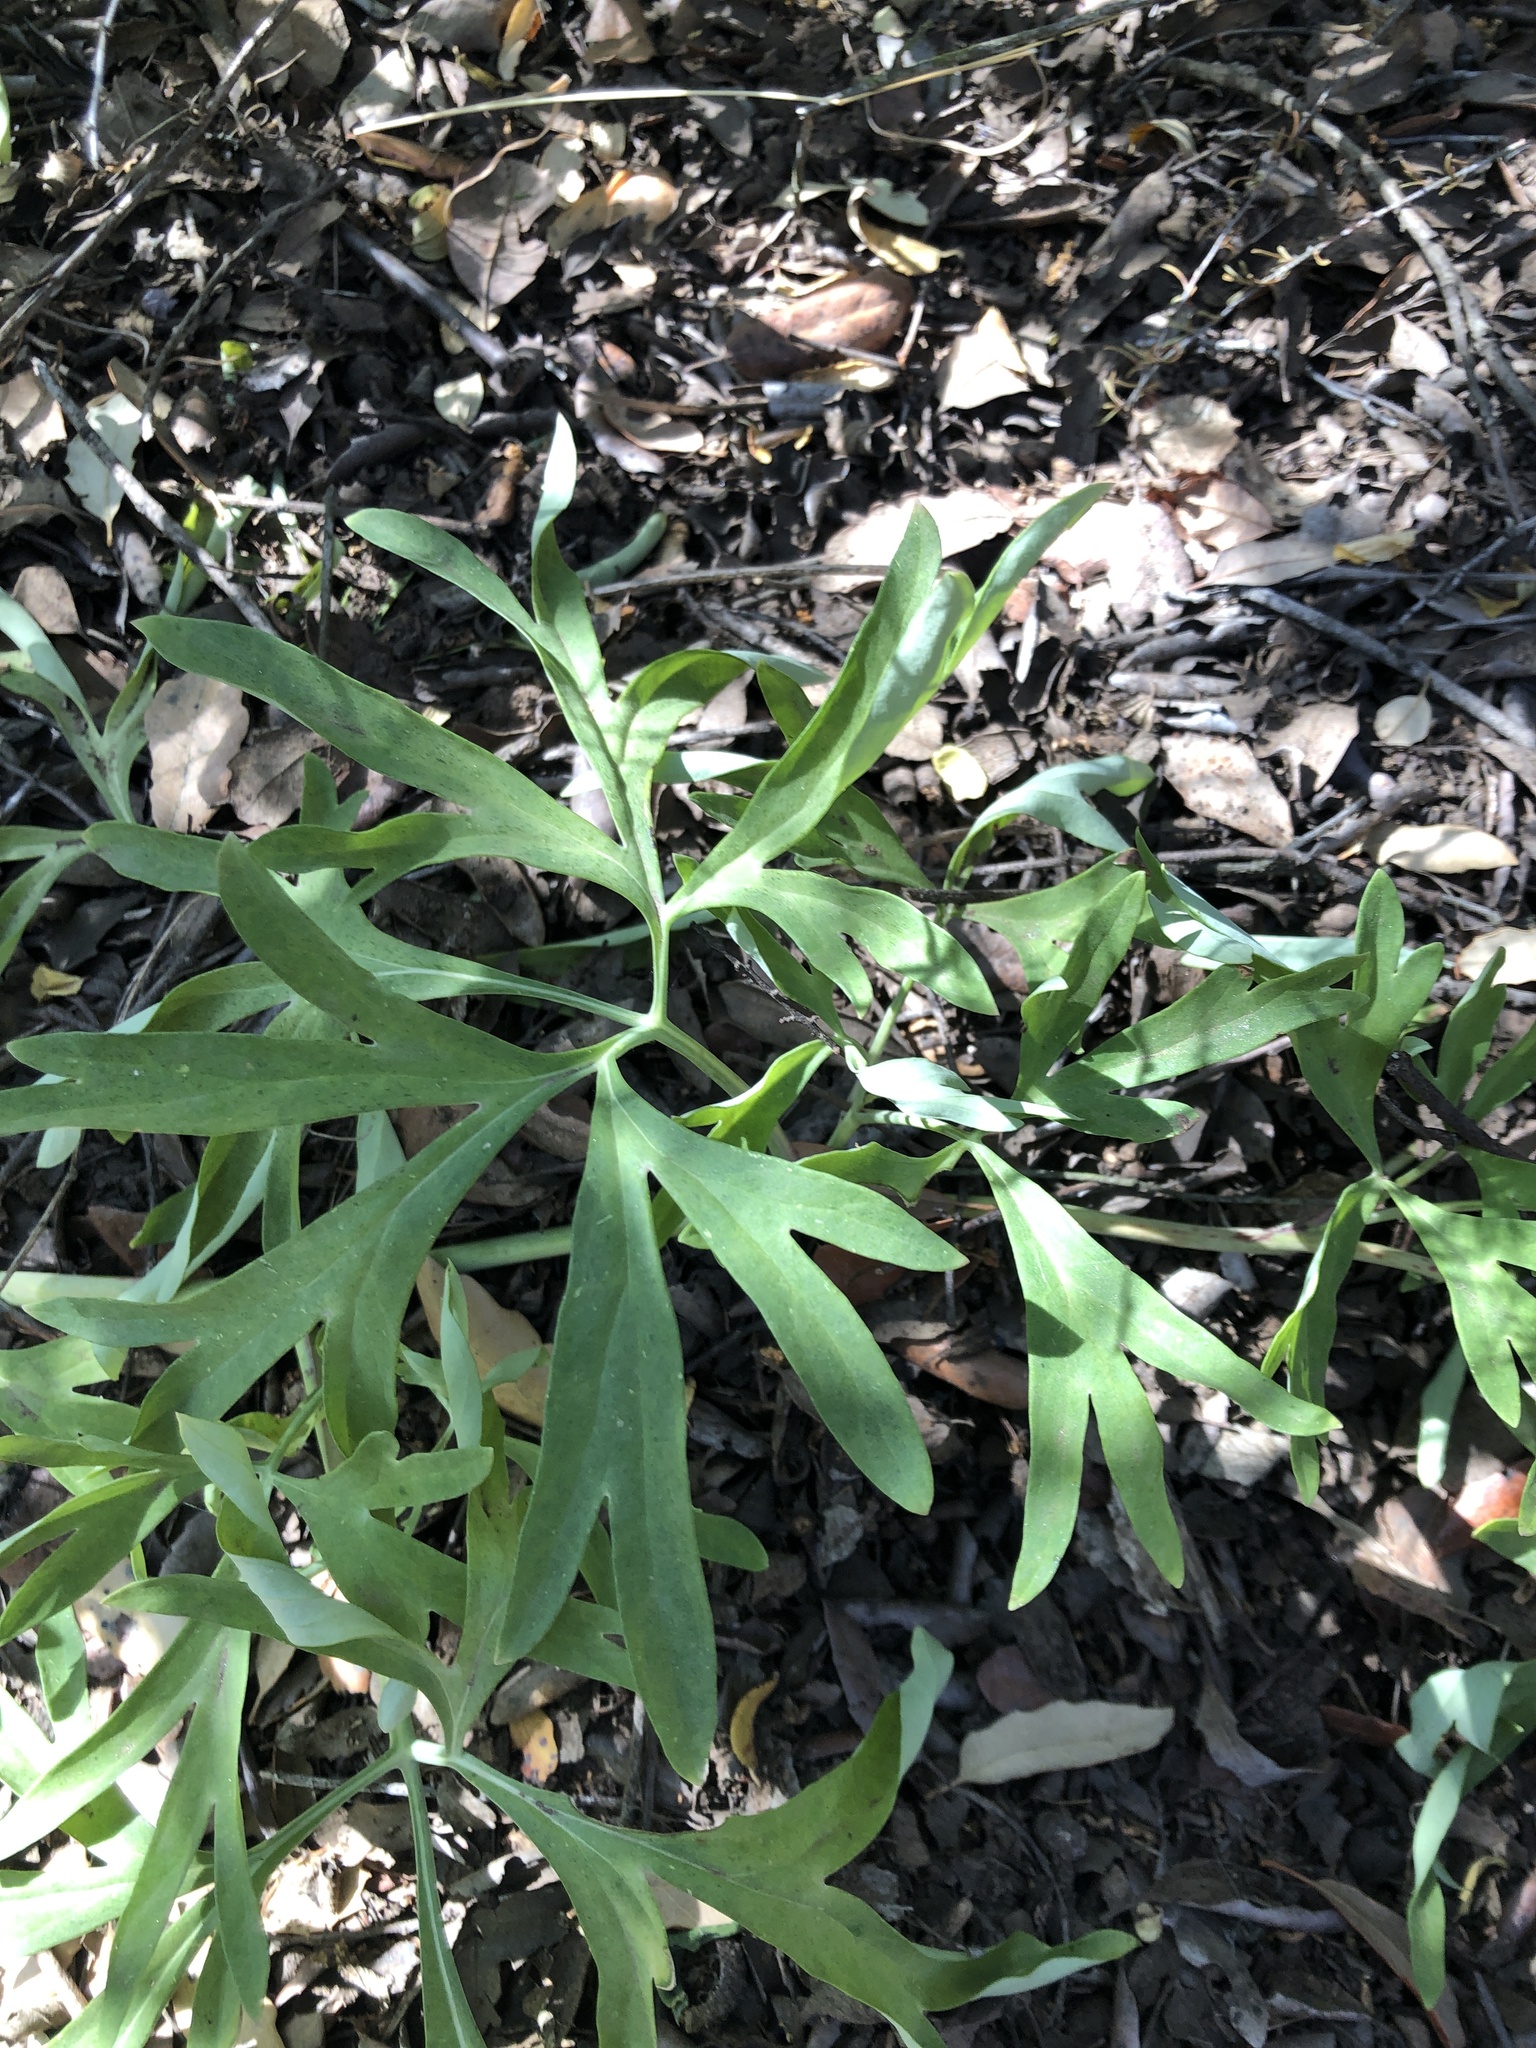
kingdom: Plantae
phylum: Tracheophyta
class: Magnoliopsida
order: Saxifragales
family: Paeoniaceae
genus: Paeonia
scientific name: Paeonia californica
